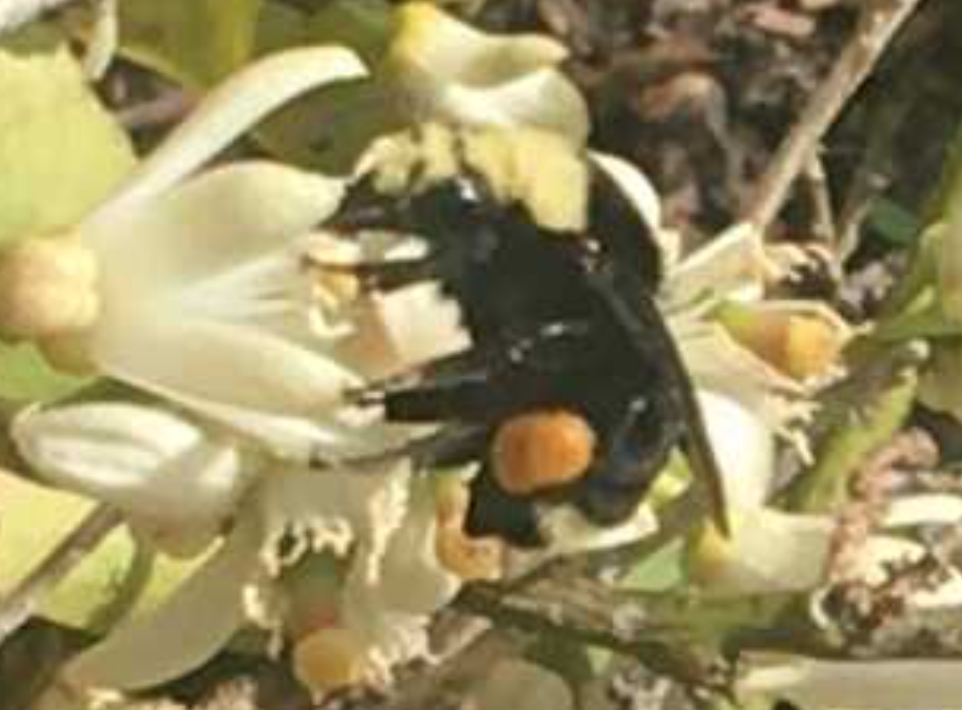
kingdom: Animalia
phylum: Arthropoda
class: Insecta
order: Hymenoptera
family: Apidae
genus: Bombus
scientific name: Bombus vosnesenskii
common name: Vosnesensky bumble bee
